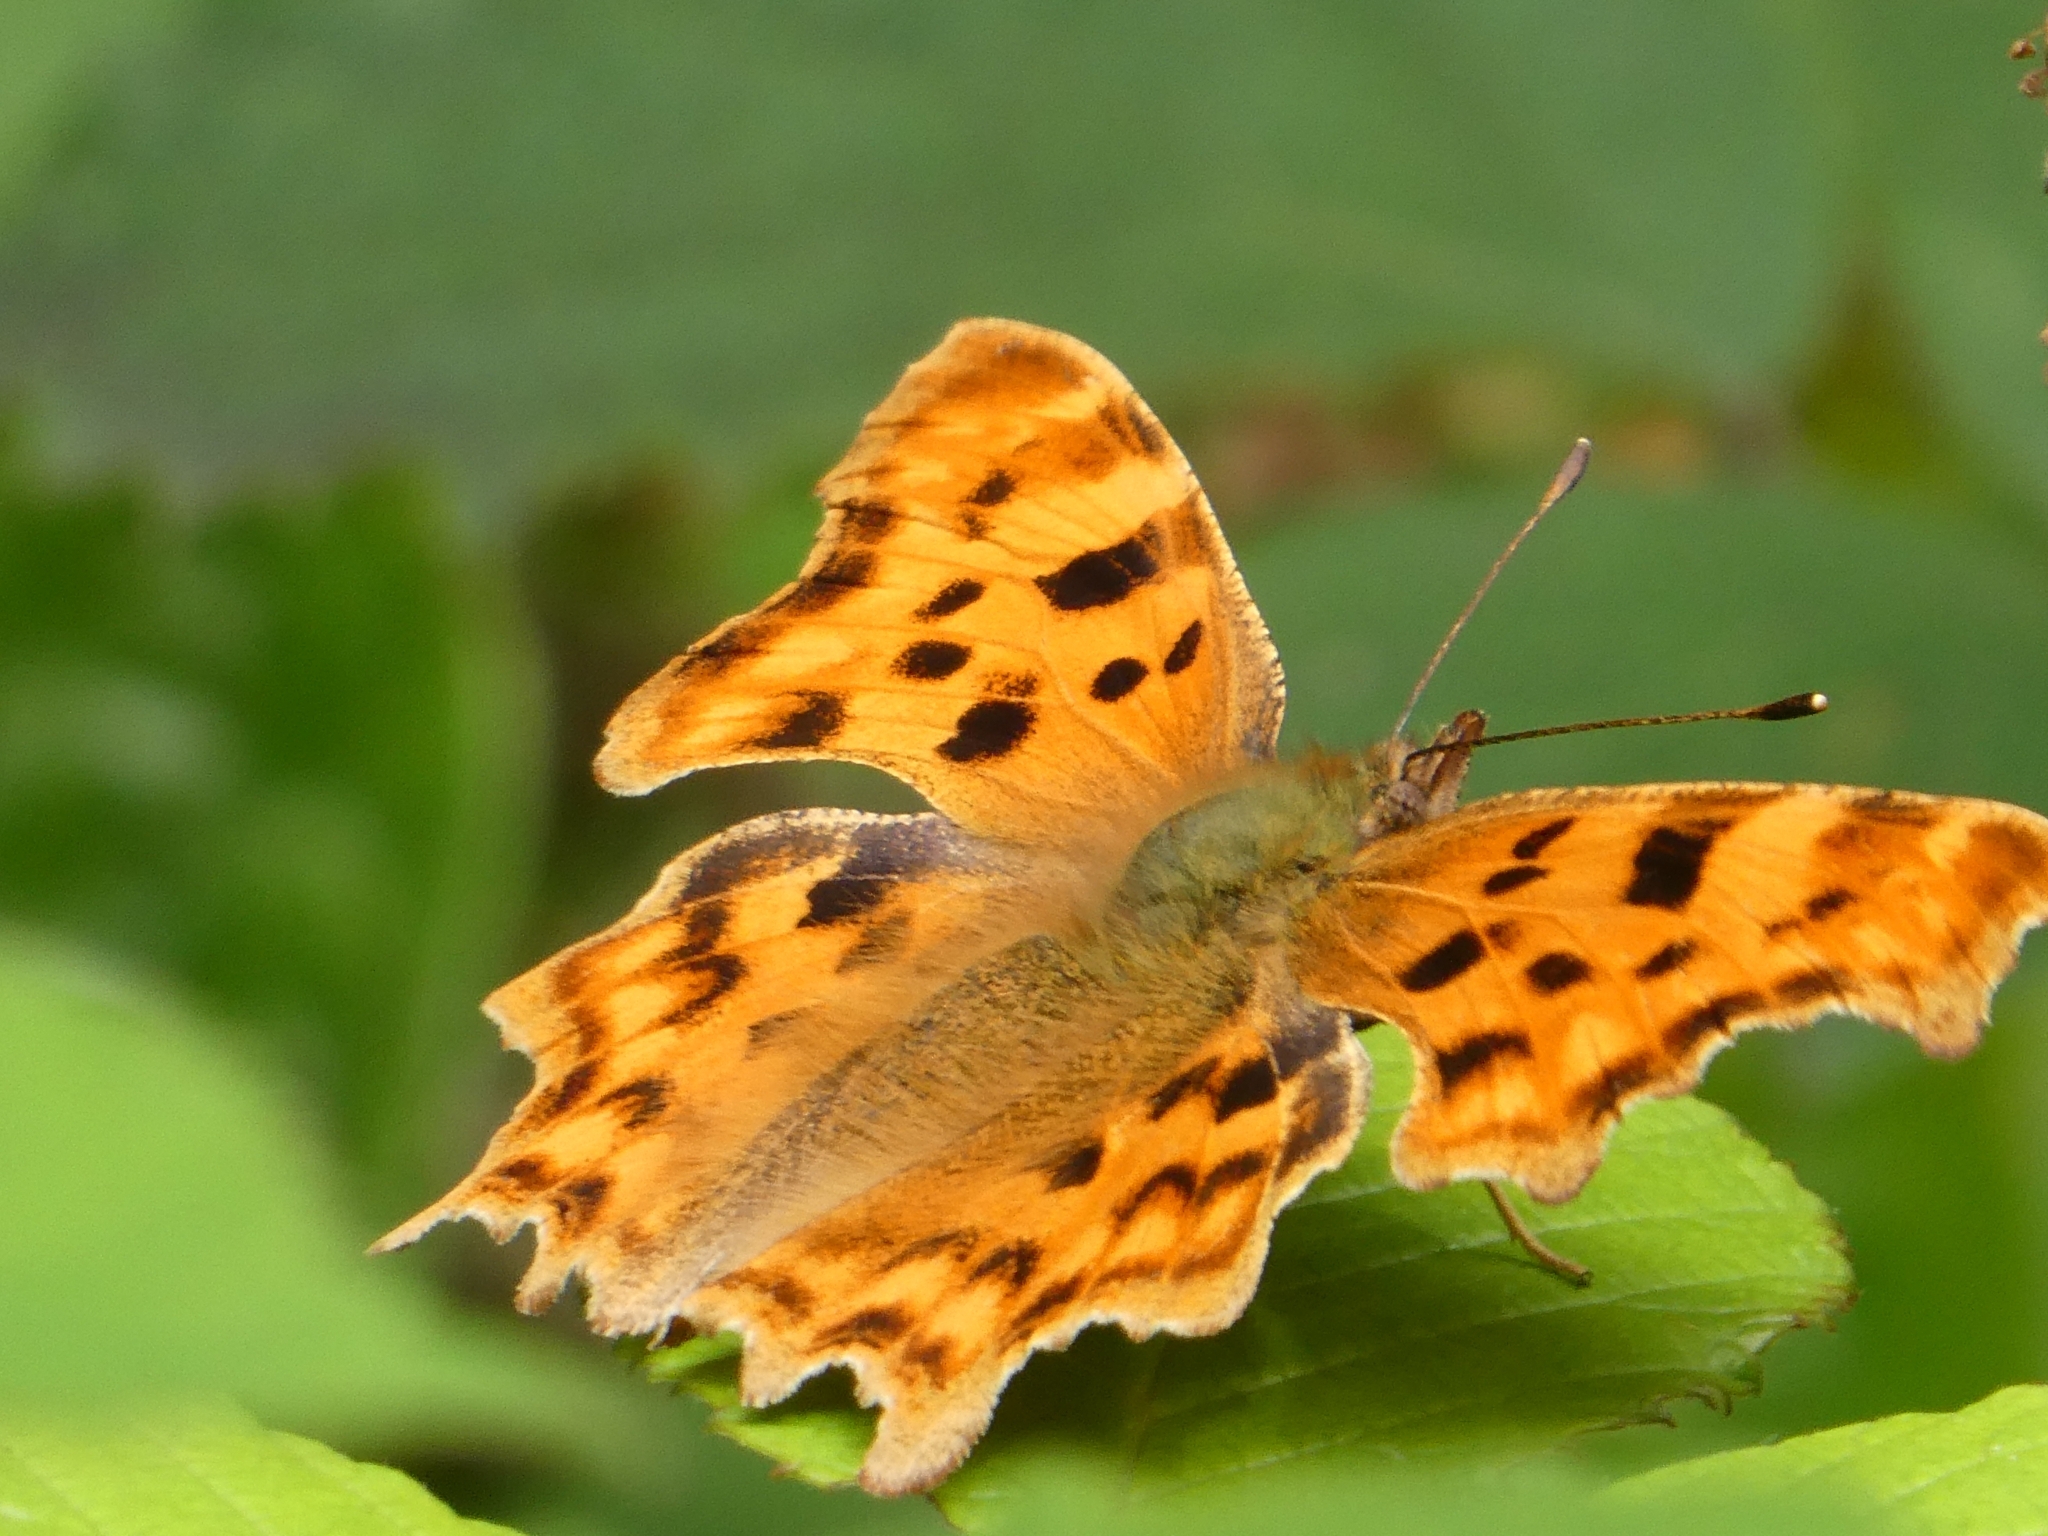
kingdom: Animalia
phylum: Arthropoda
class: Insecta
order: Lepidoptera
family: Nymphalidae
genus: Polygonia
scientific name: Polygonia c-album
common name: Comma
